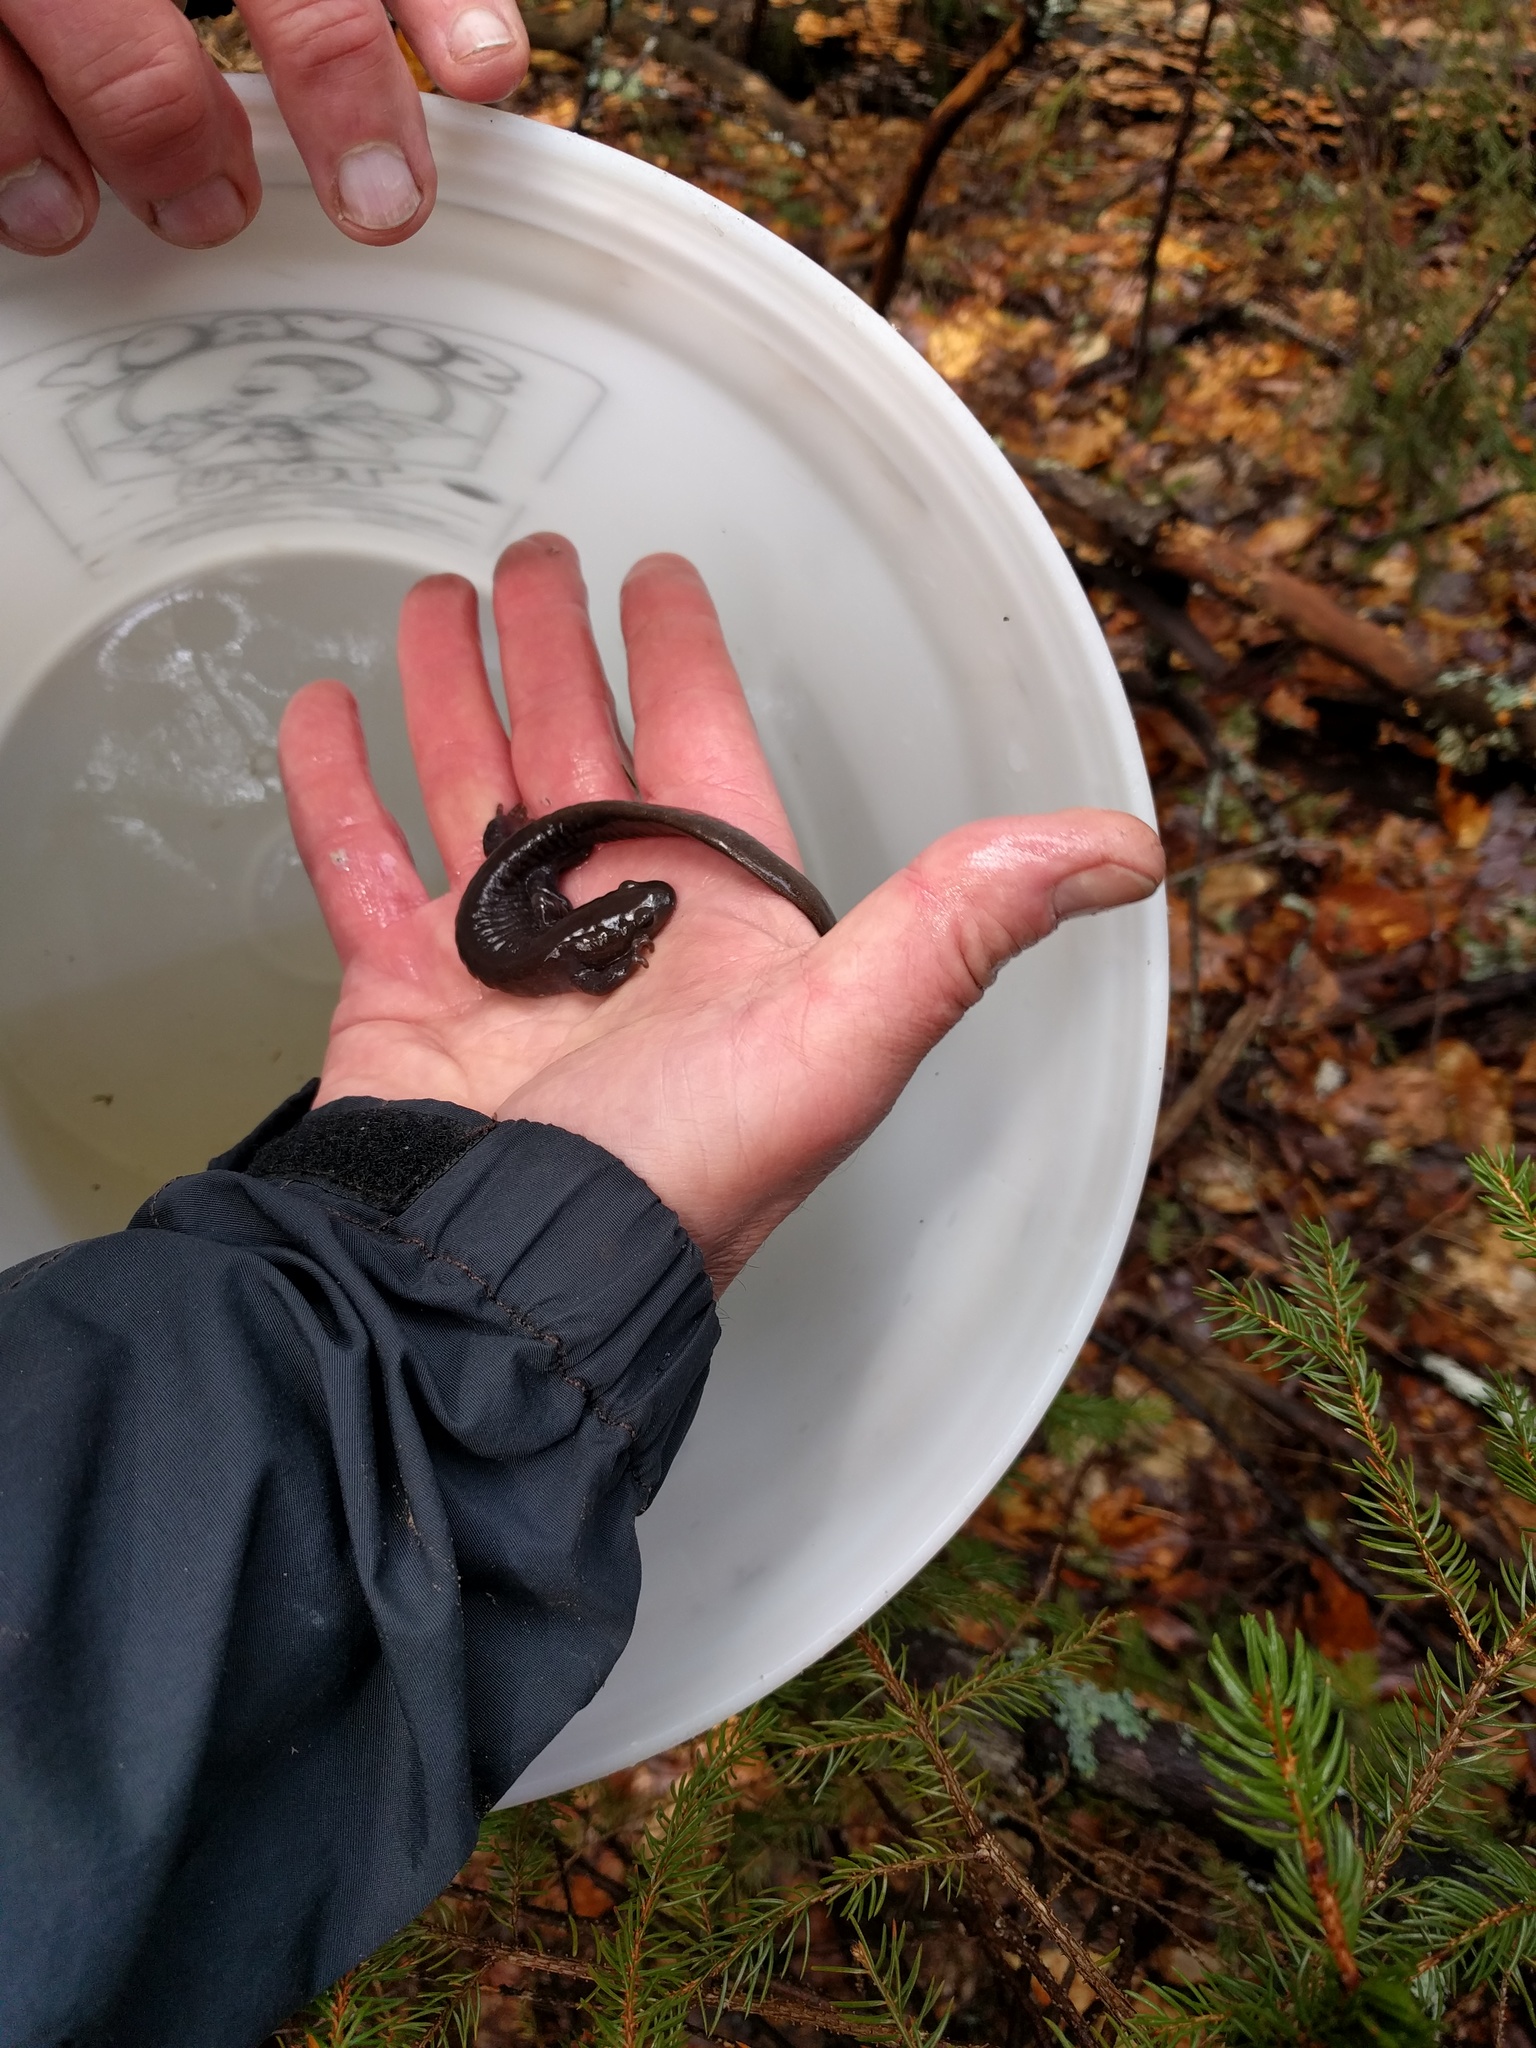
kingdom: Animalia
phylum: Chordata
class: Amphibia
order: Caudata
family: Ambystomatidae
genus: Ambystoma
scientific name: Ambystoma jeffersonianum
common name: Jefferson salamander
